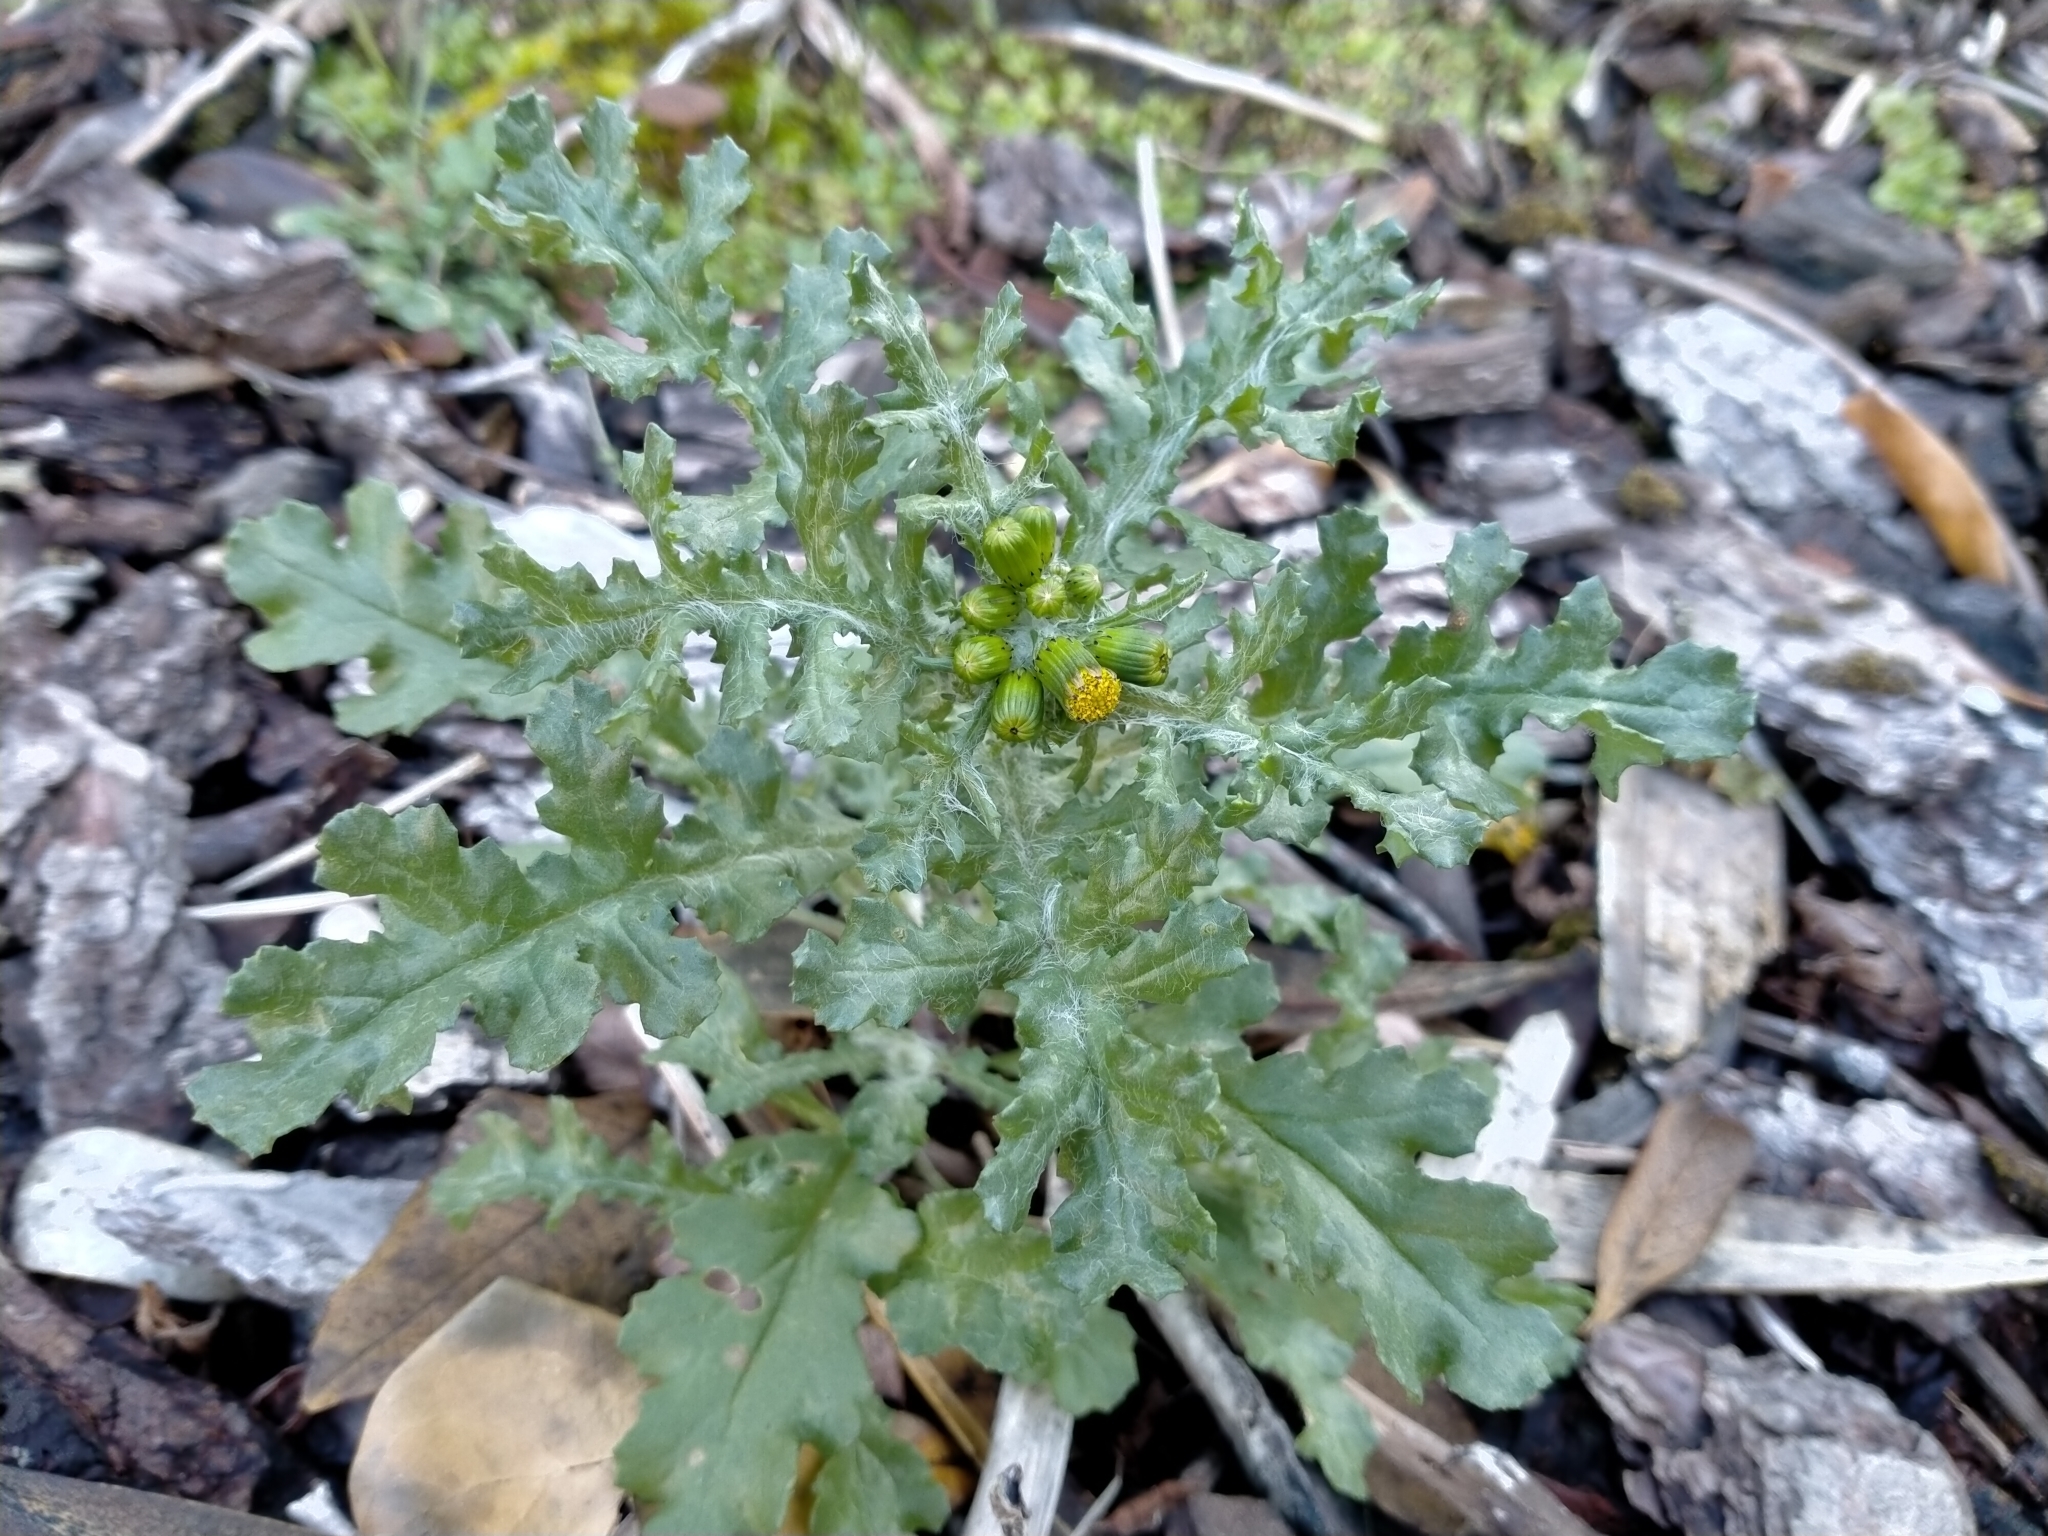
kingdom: Plantae
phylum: Tracheophyta
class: Magnoliopsida
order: Asterales
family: Asteraceae
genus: Senecio
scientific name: Senecio vulgaris
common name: Old-man-in-the-spring
